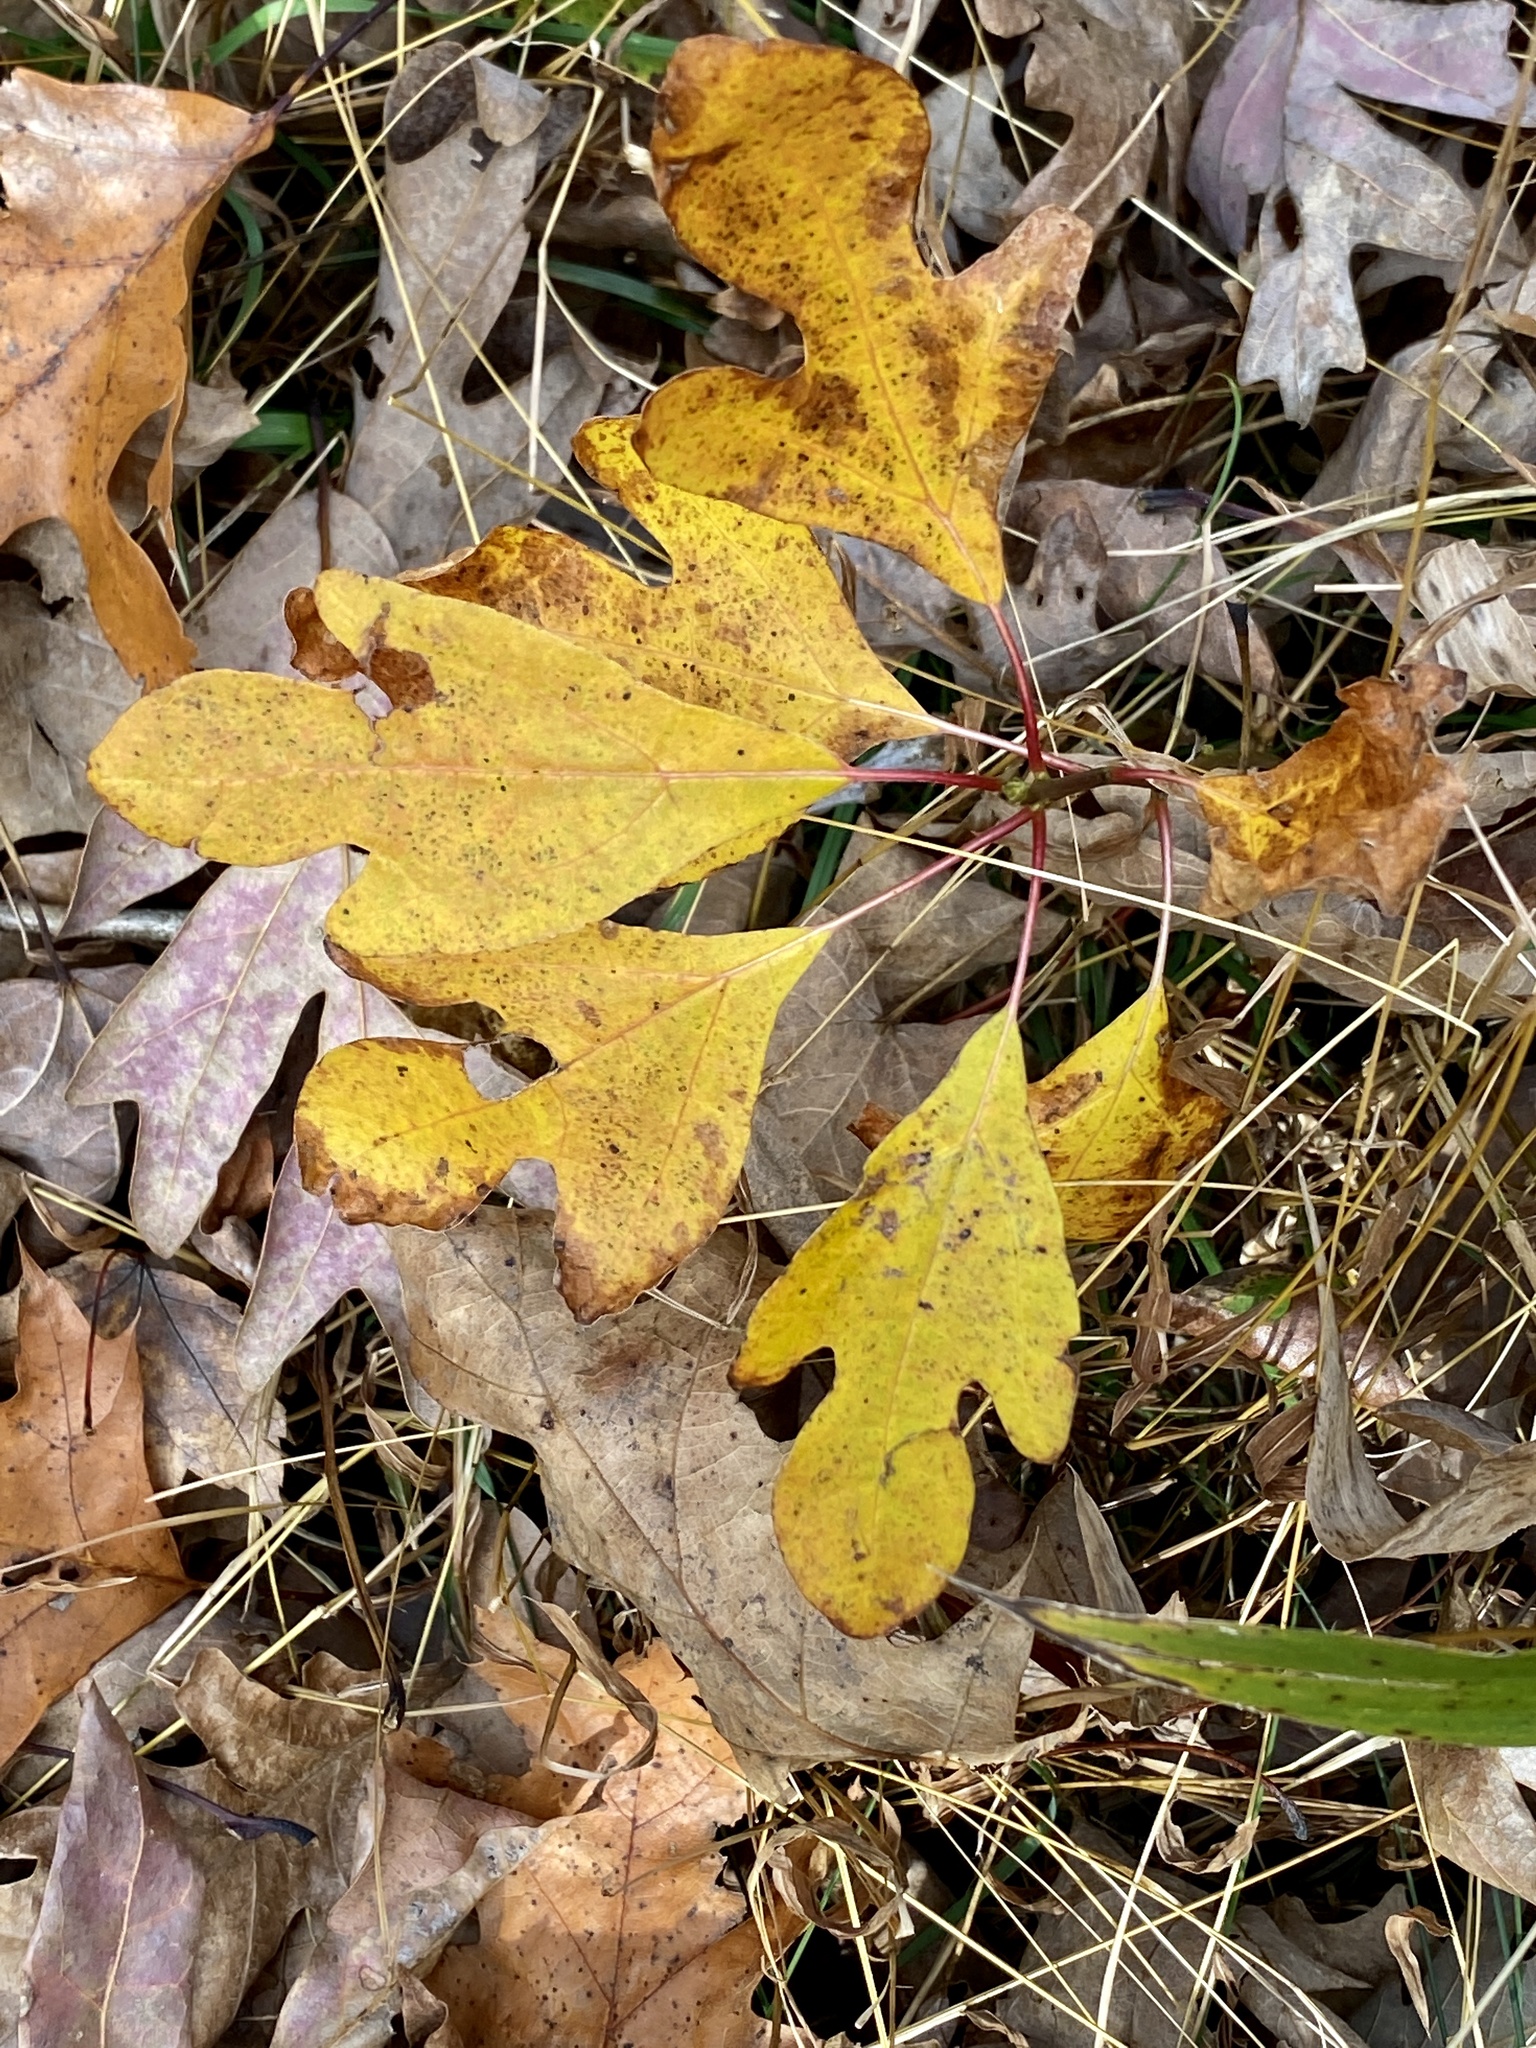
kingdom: Plantae
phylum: Tracheophyta
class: Magnoliopsida
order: Laurales
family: Lauraceae
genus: Sassafras
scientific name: Sassafras albidum
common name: Sassafras
